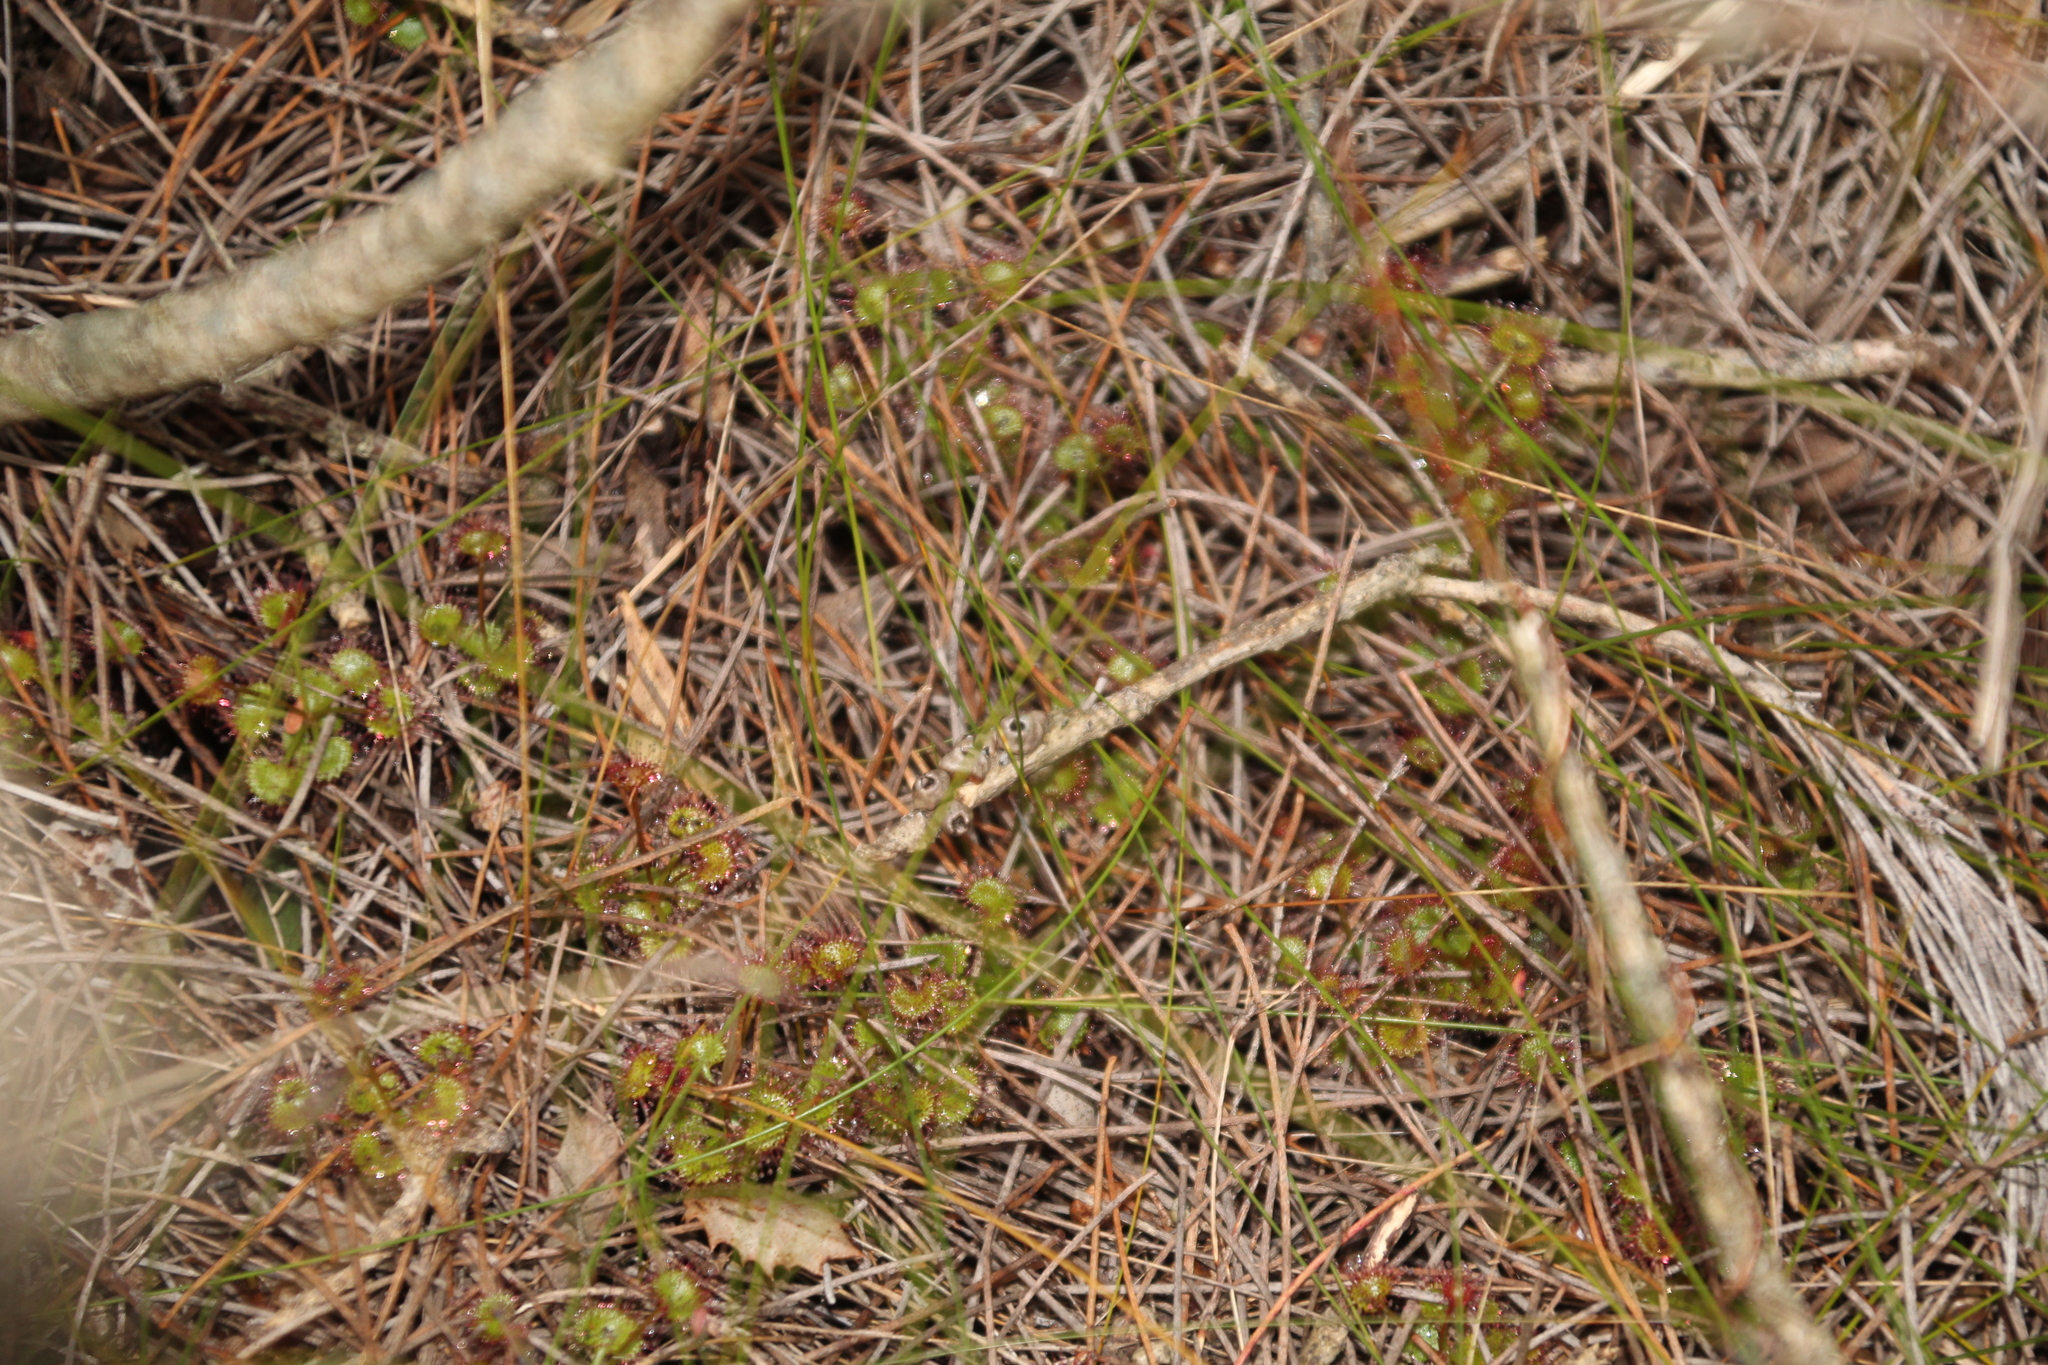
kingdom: Plantae
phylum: Tracheophyta
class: Magnoliopsida
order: Caryophyllales
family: Droseraceae
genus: Drosera
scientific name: Drosera monticola
